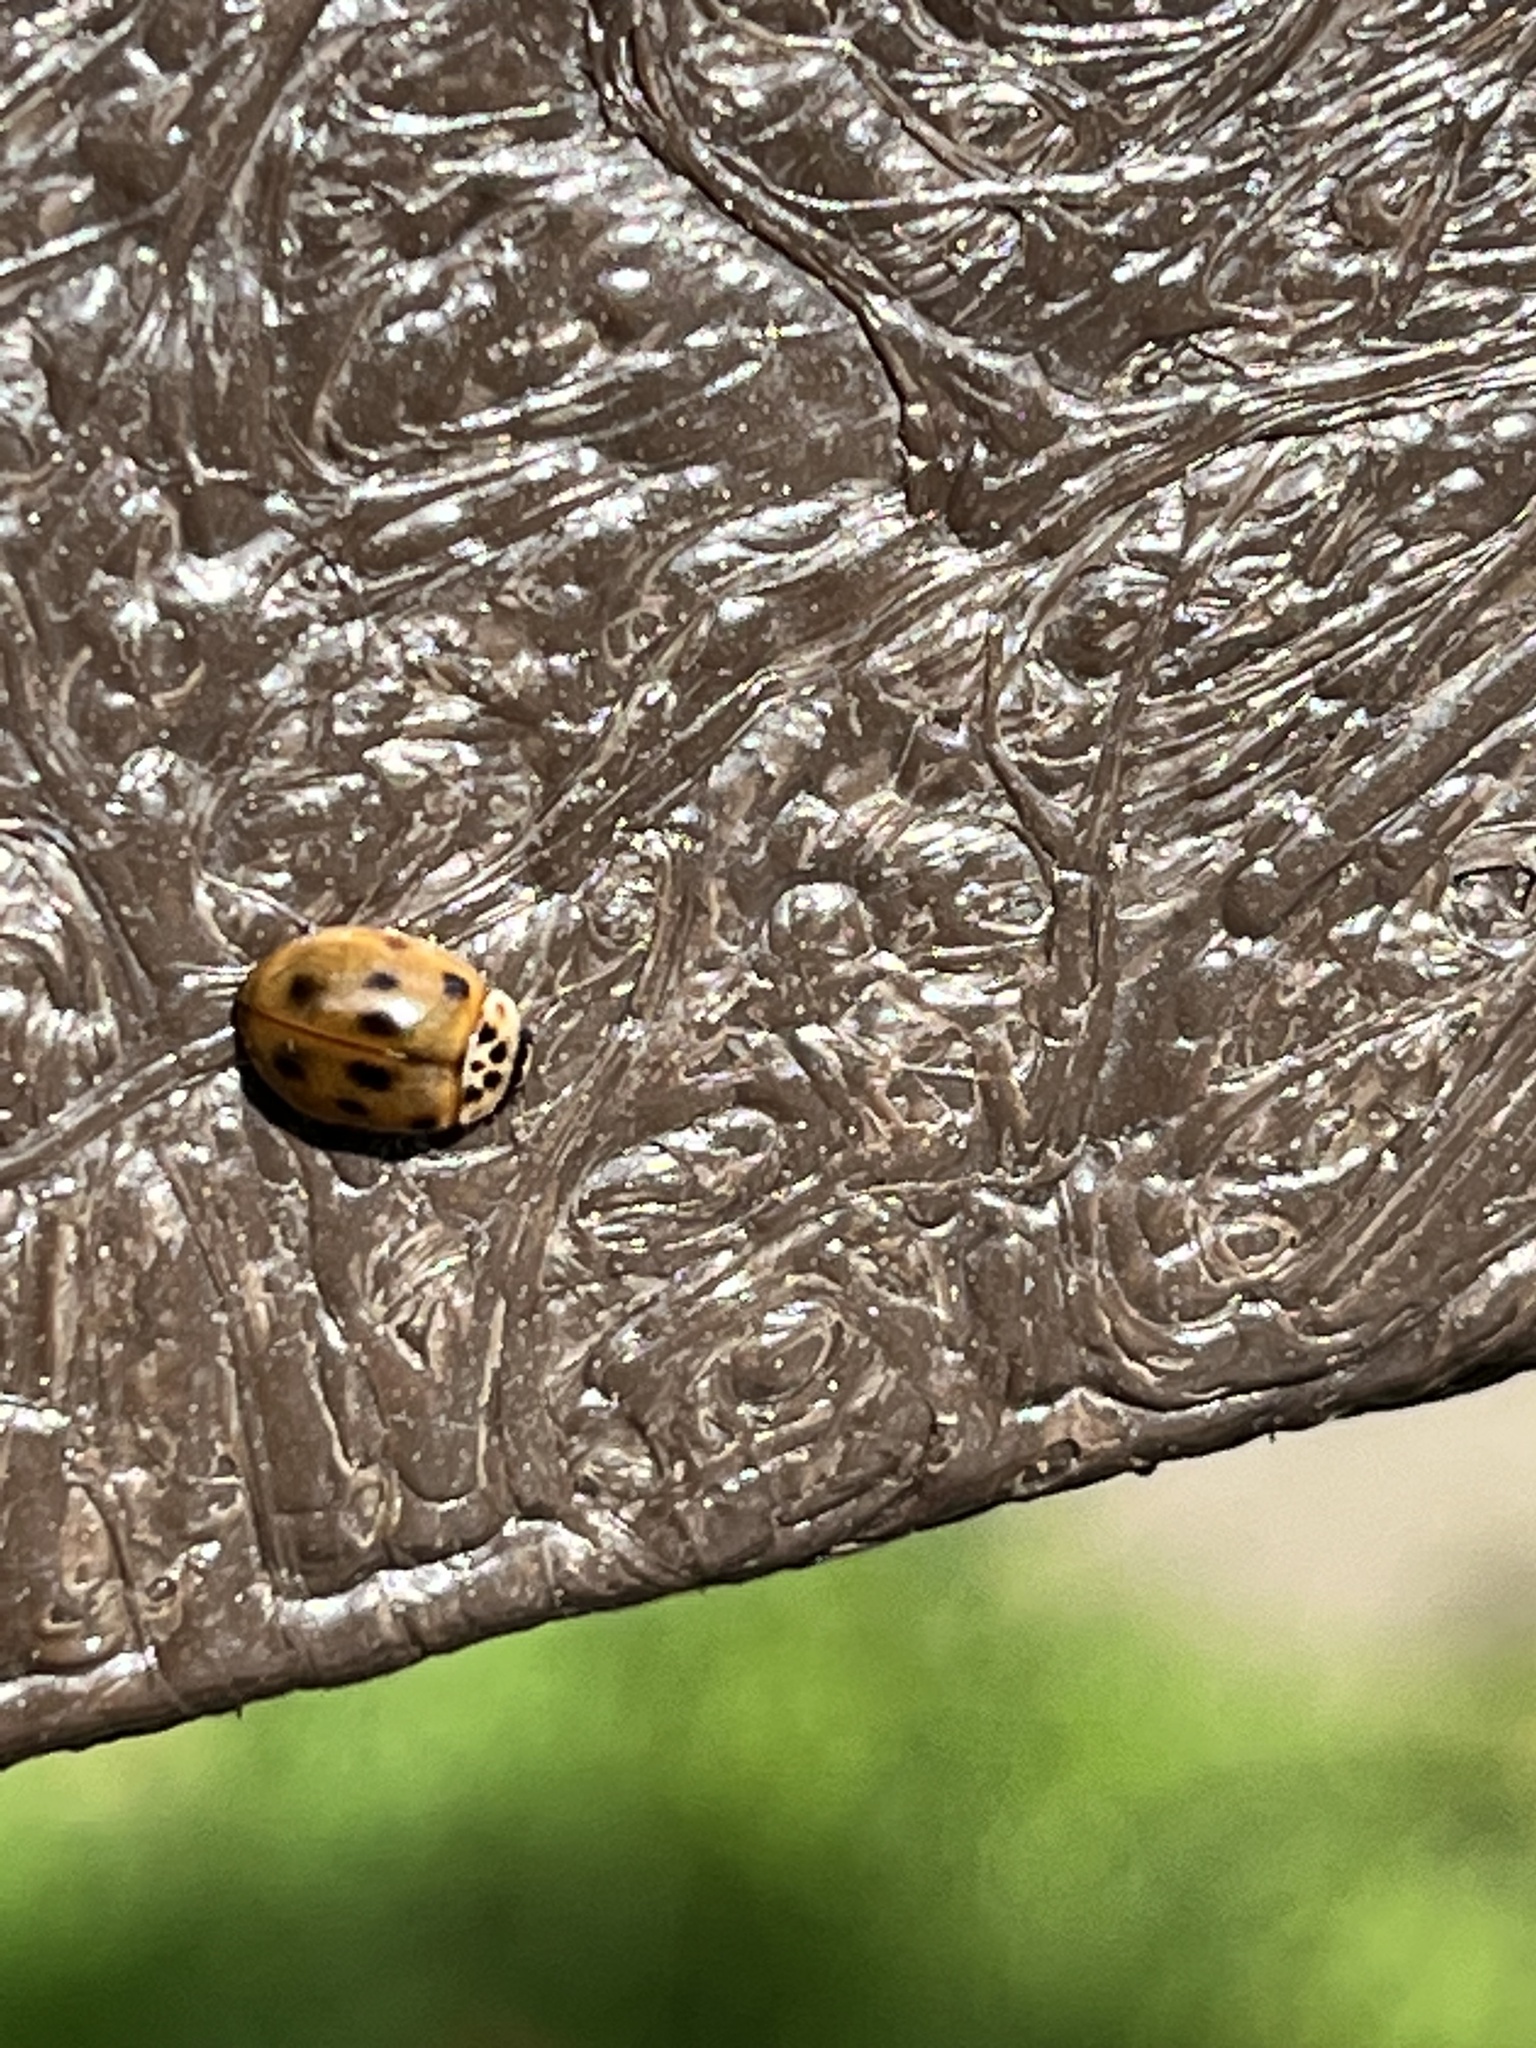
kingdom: Animalia
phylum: Arthropoda
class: Insecta
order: Coleoptera
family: Coccinellidae
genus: Adalia
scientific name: Adalia decempunctata
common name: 10-spot ladybird
